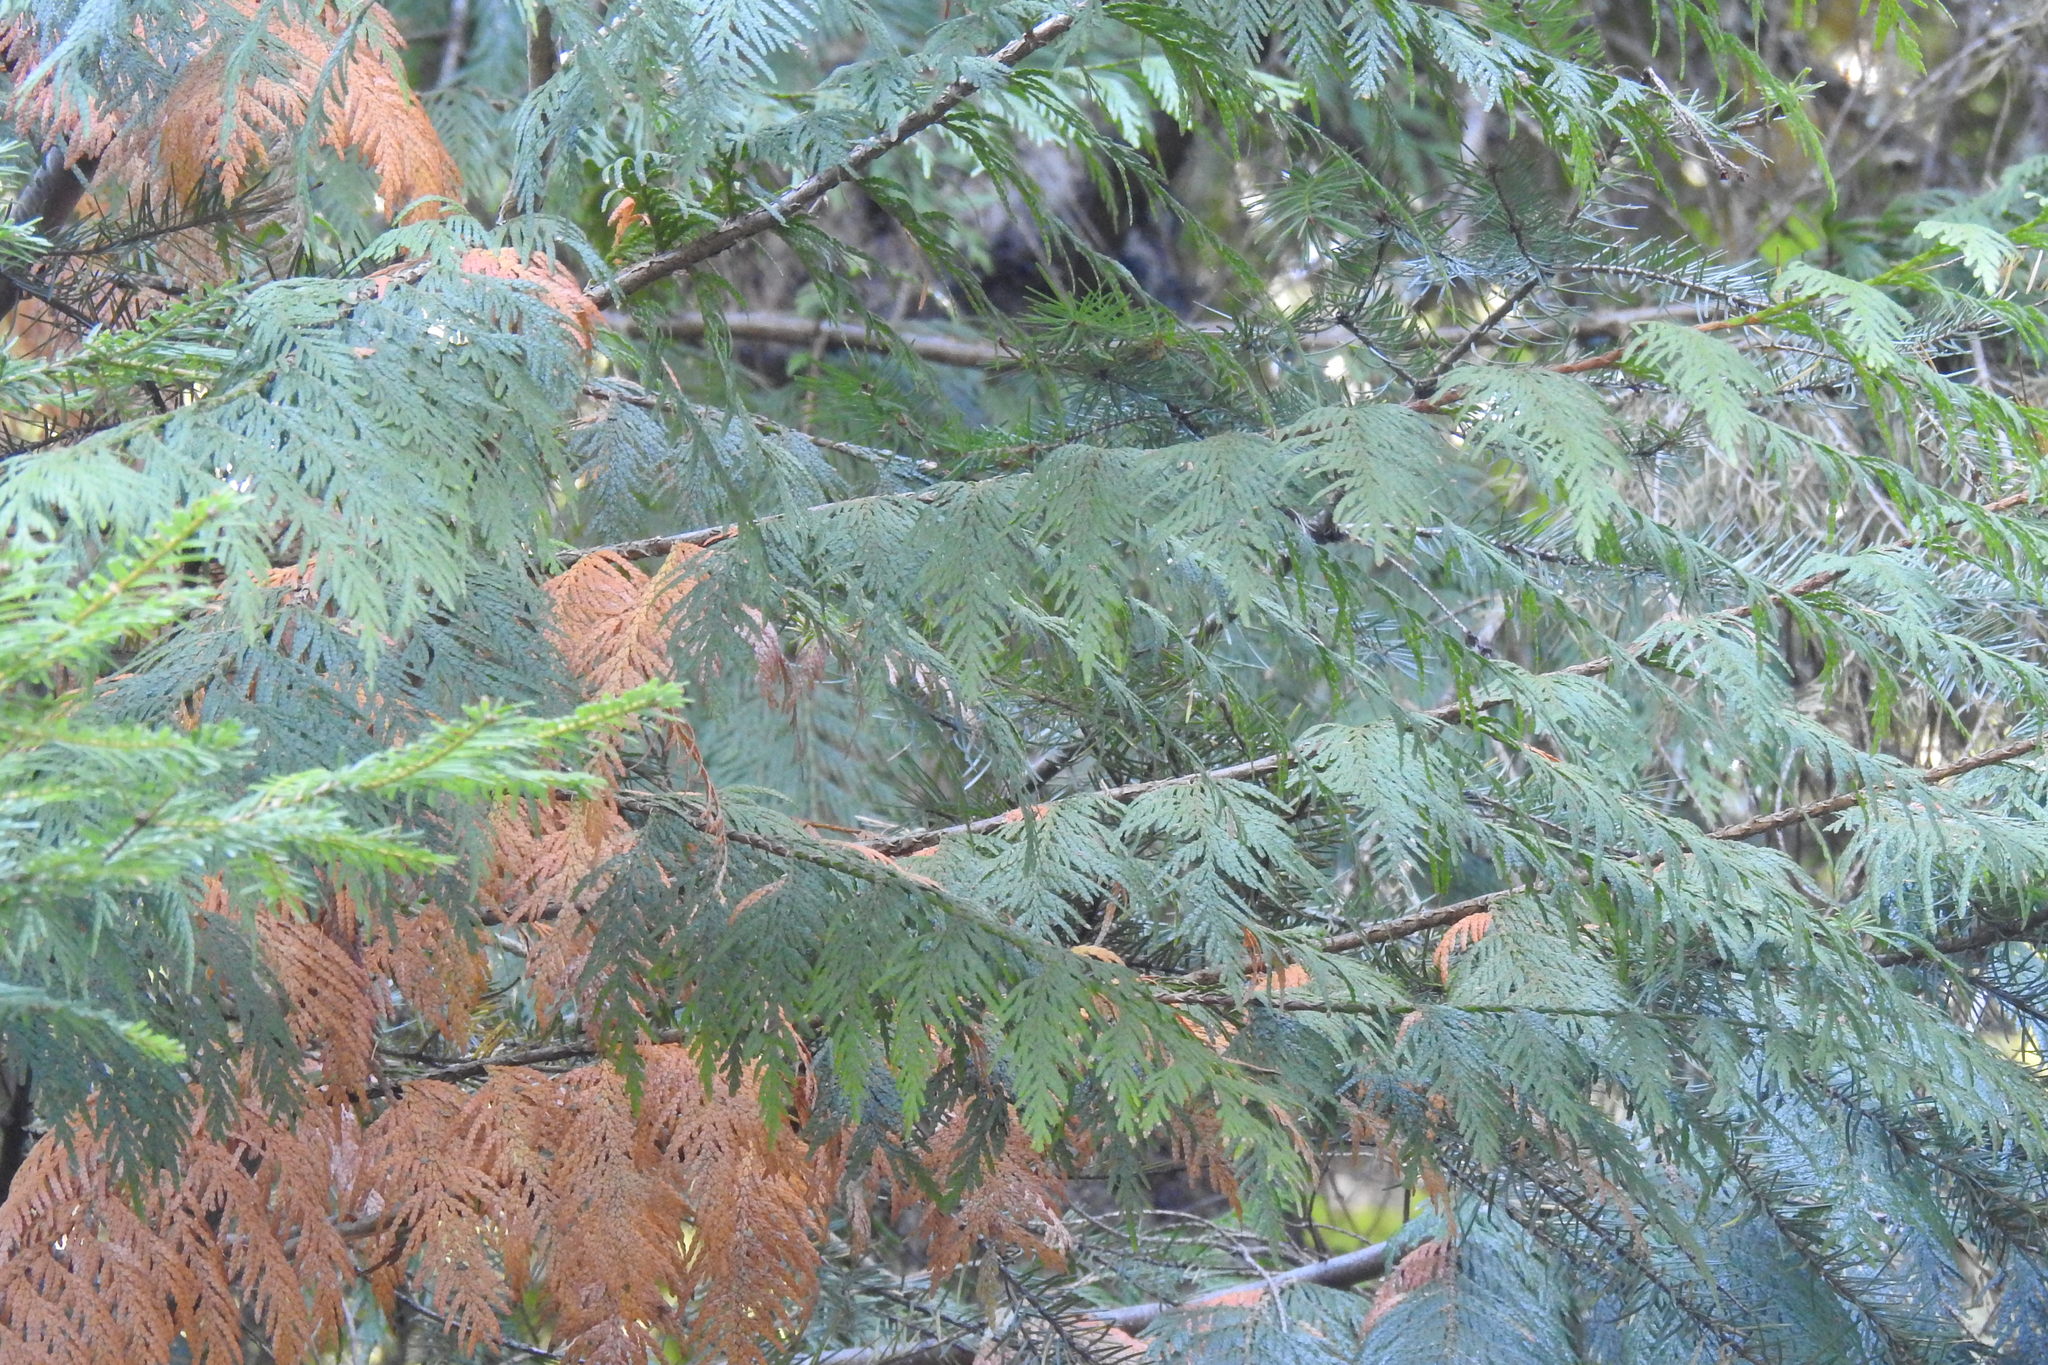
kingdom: Plantae
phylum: Tracheophyta
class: Pinopsida
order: Pinales
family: Cupressaceae
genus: Thuja
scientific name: Thuja plicata
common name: Western red-cedar
